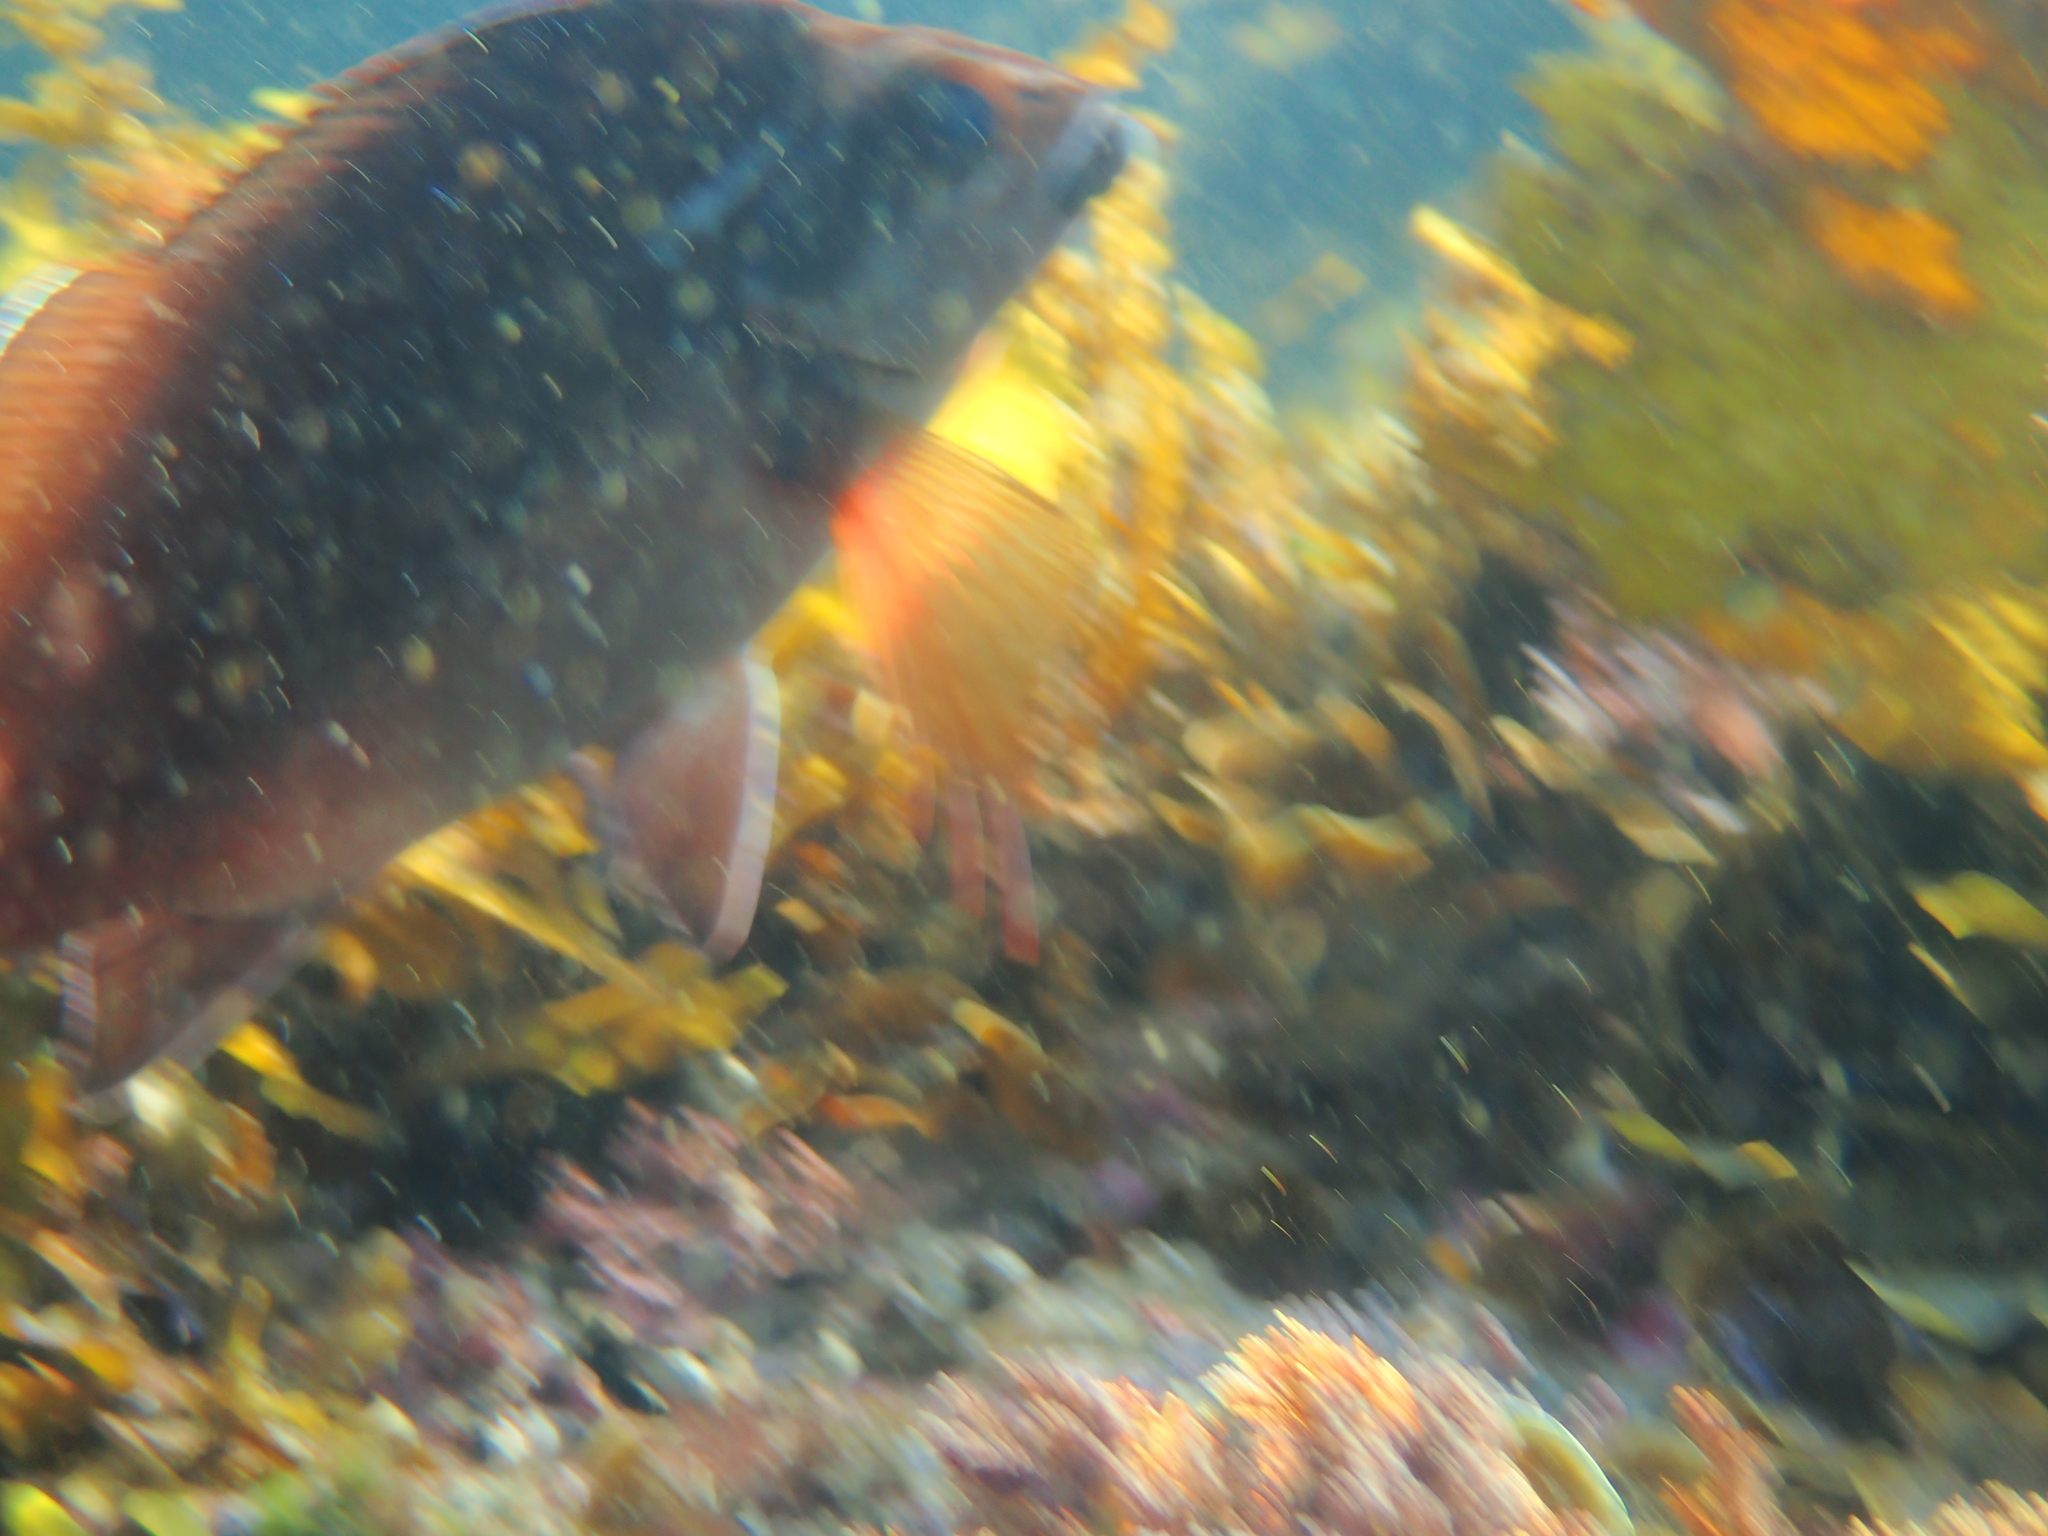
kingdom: Animalia
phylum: Chordata
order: Perciformes
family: Latridae
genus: Morwong
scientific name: Morwong fuscus
